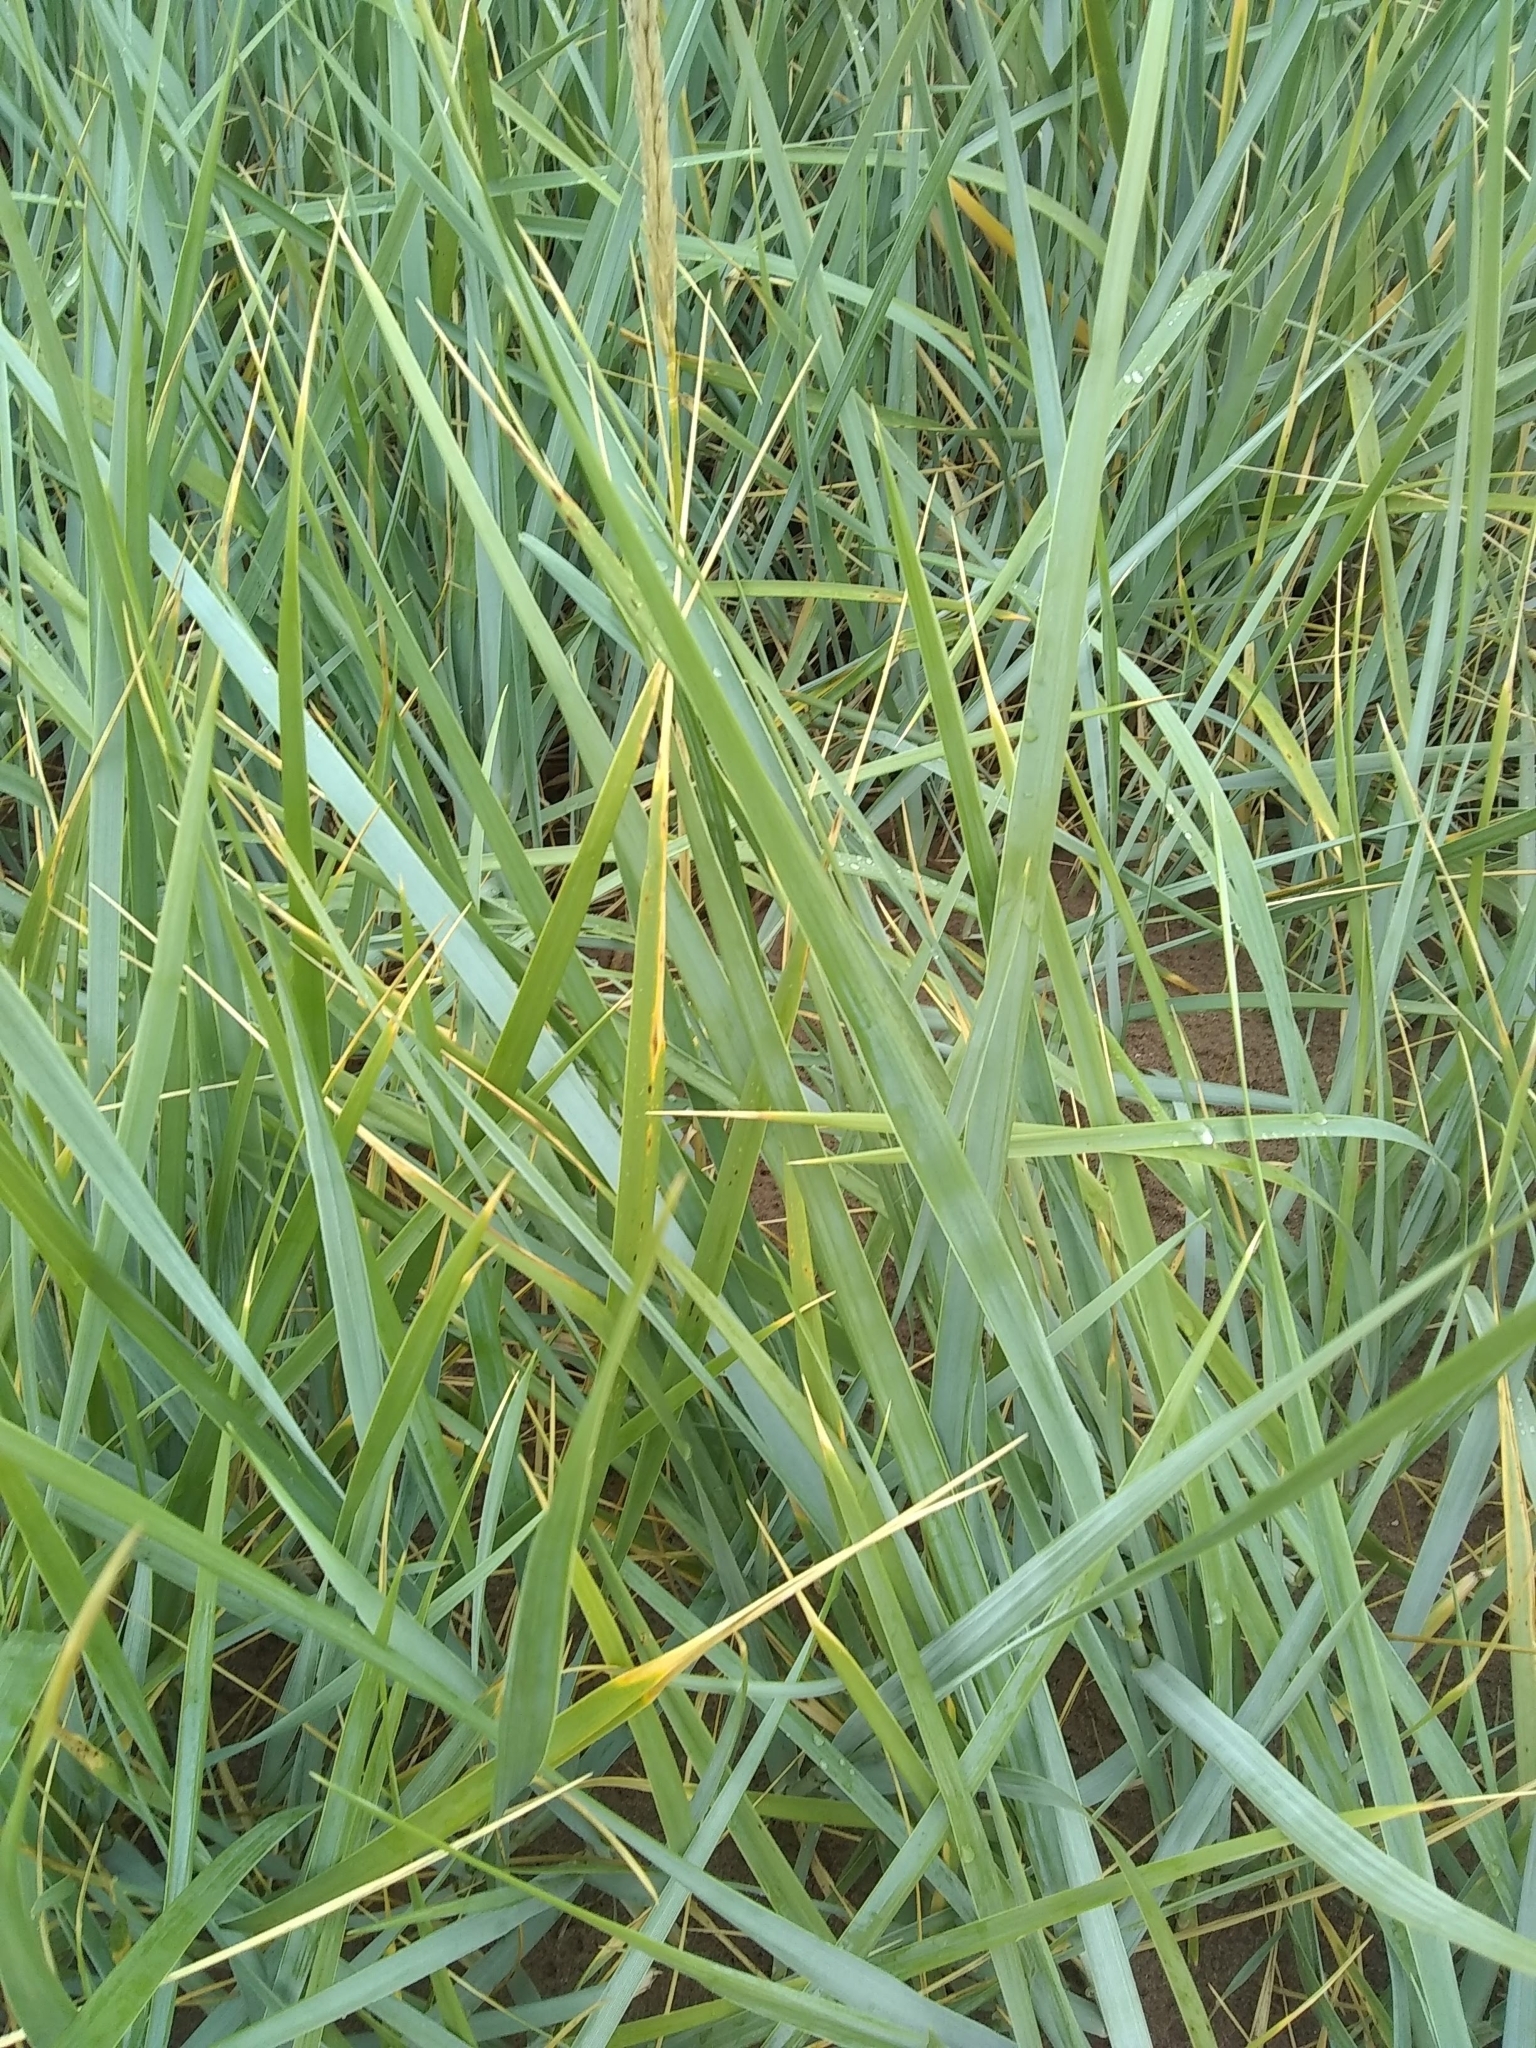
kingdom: Plantae
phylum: Tracheophyta
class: Liliopsida
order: Poales
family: Poaceae
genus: Leymus
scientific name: Leymus arenarius
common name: Lyme-grass
